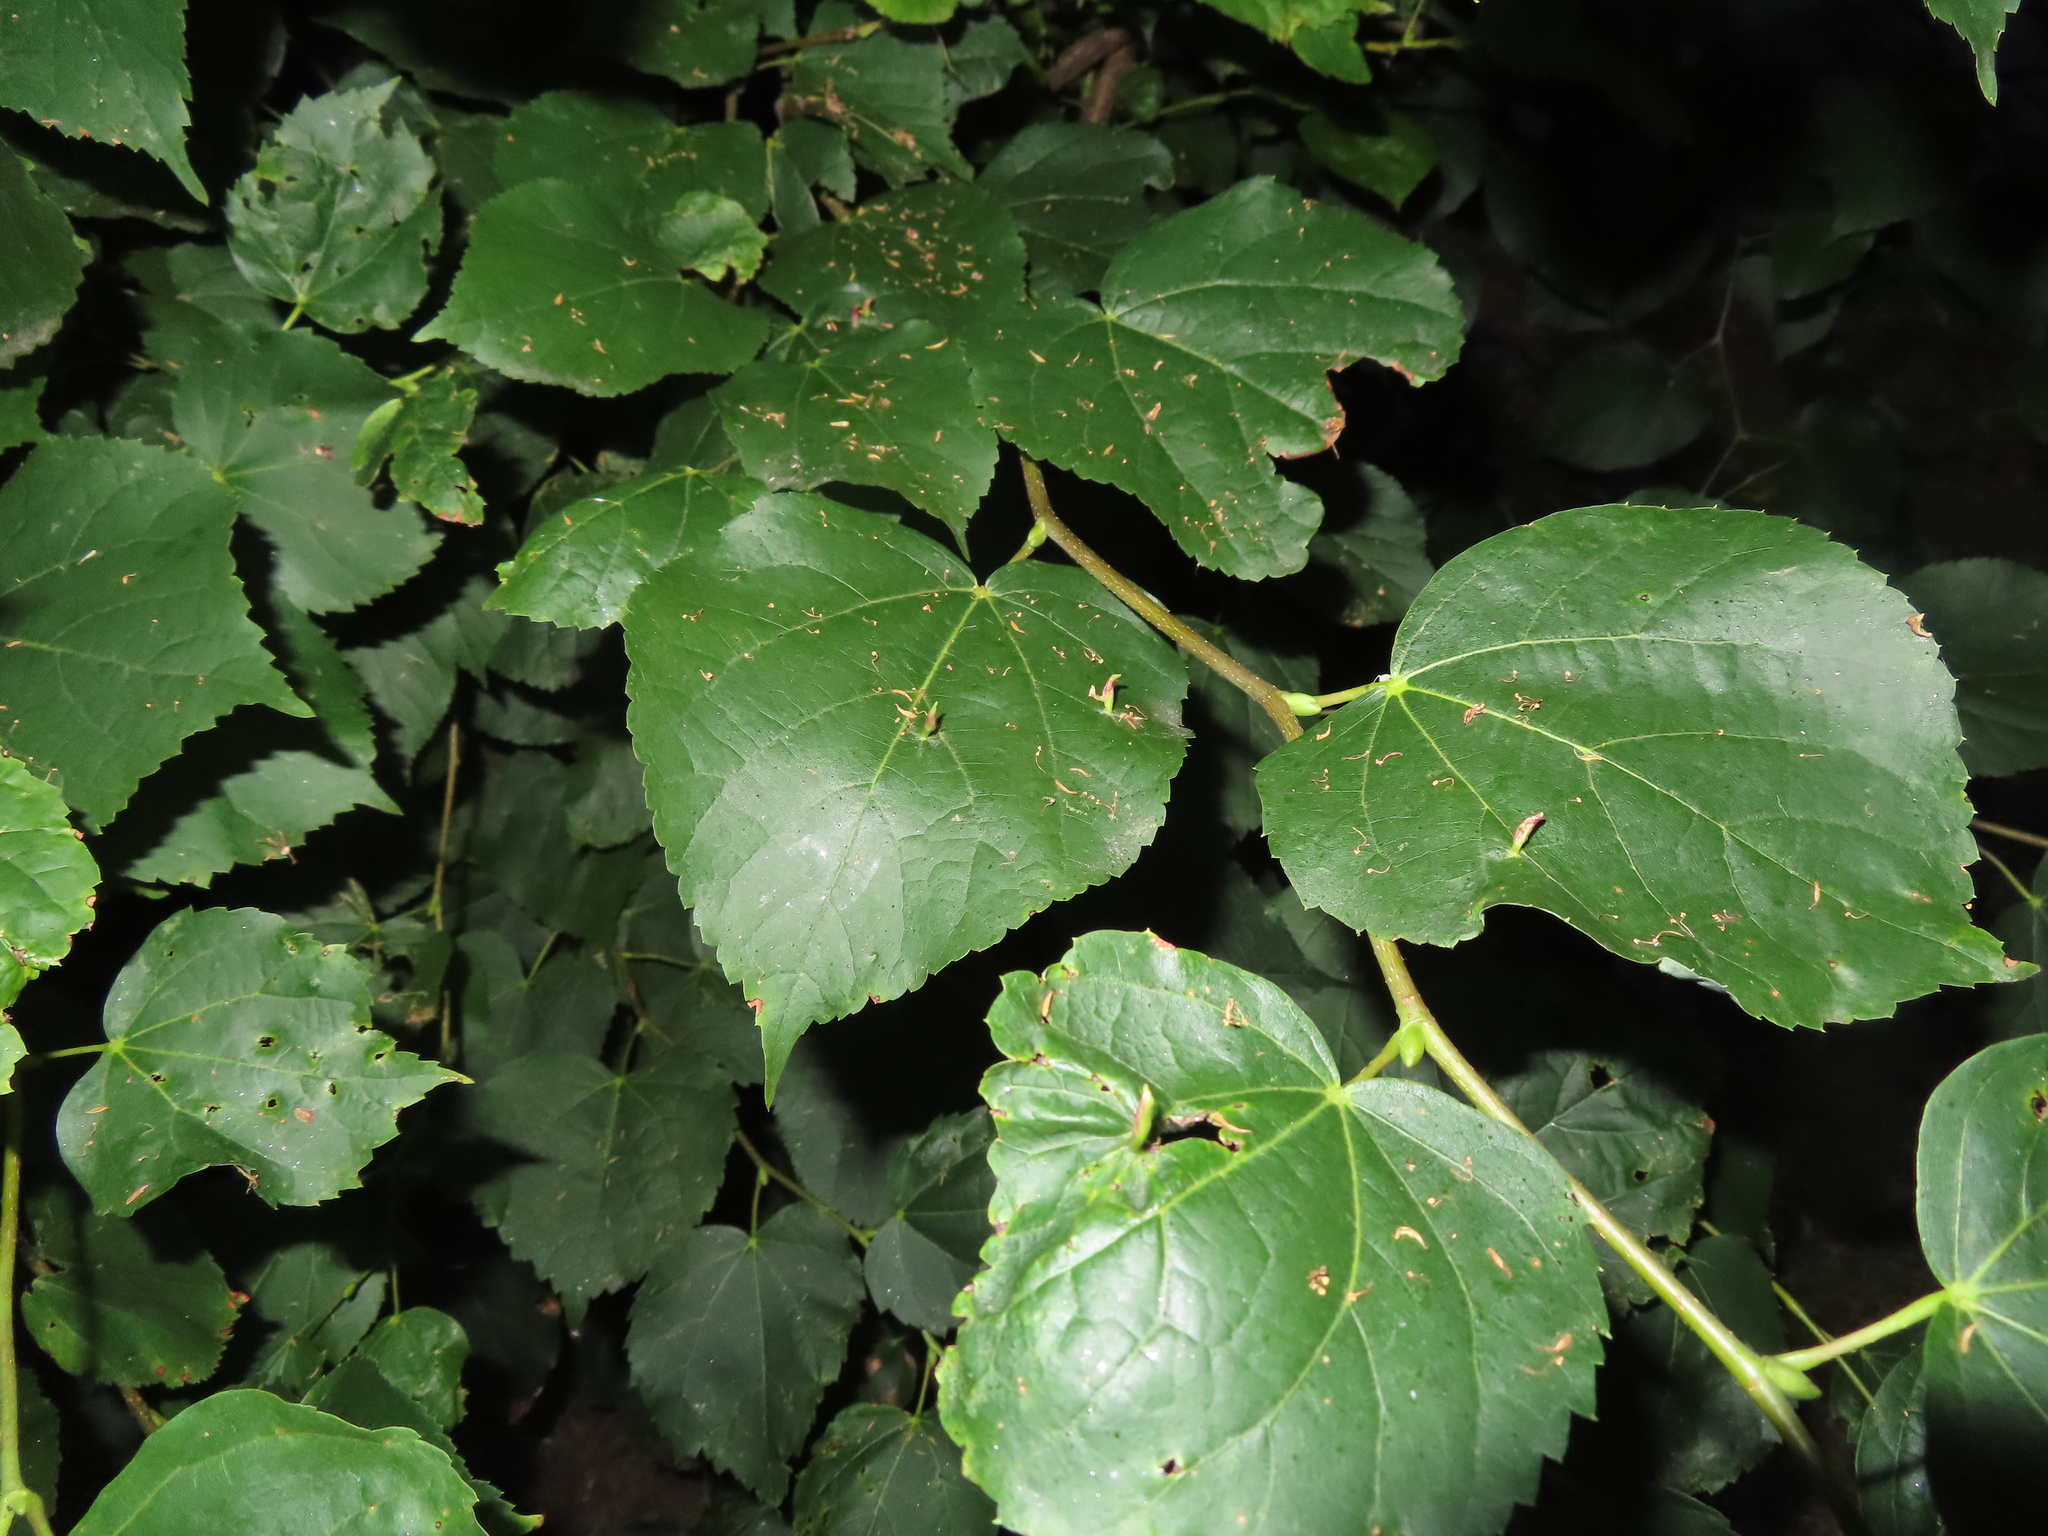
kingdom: Animalia
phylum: Arthropoda
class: Arachnida
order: Trombidiformes
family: Eriophyidae
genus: Eriophyes
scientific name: Eriophyes tiliae
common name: Red nail gall mite
